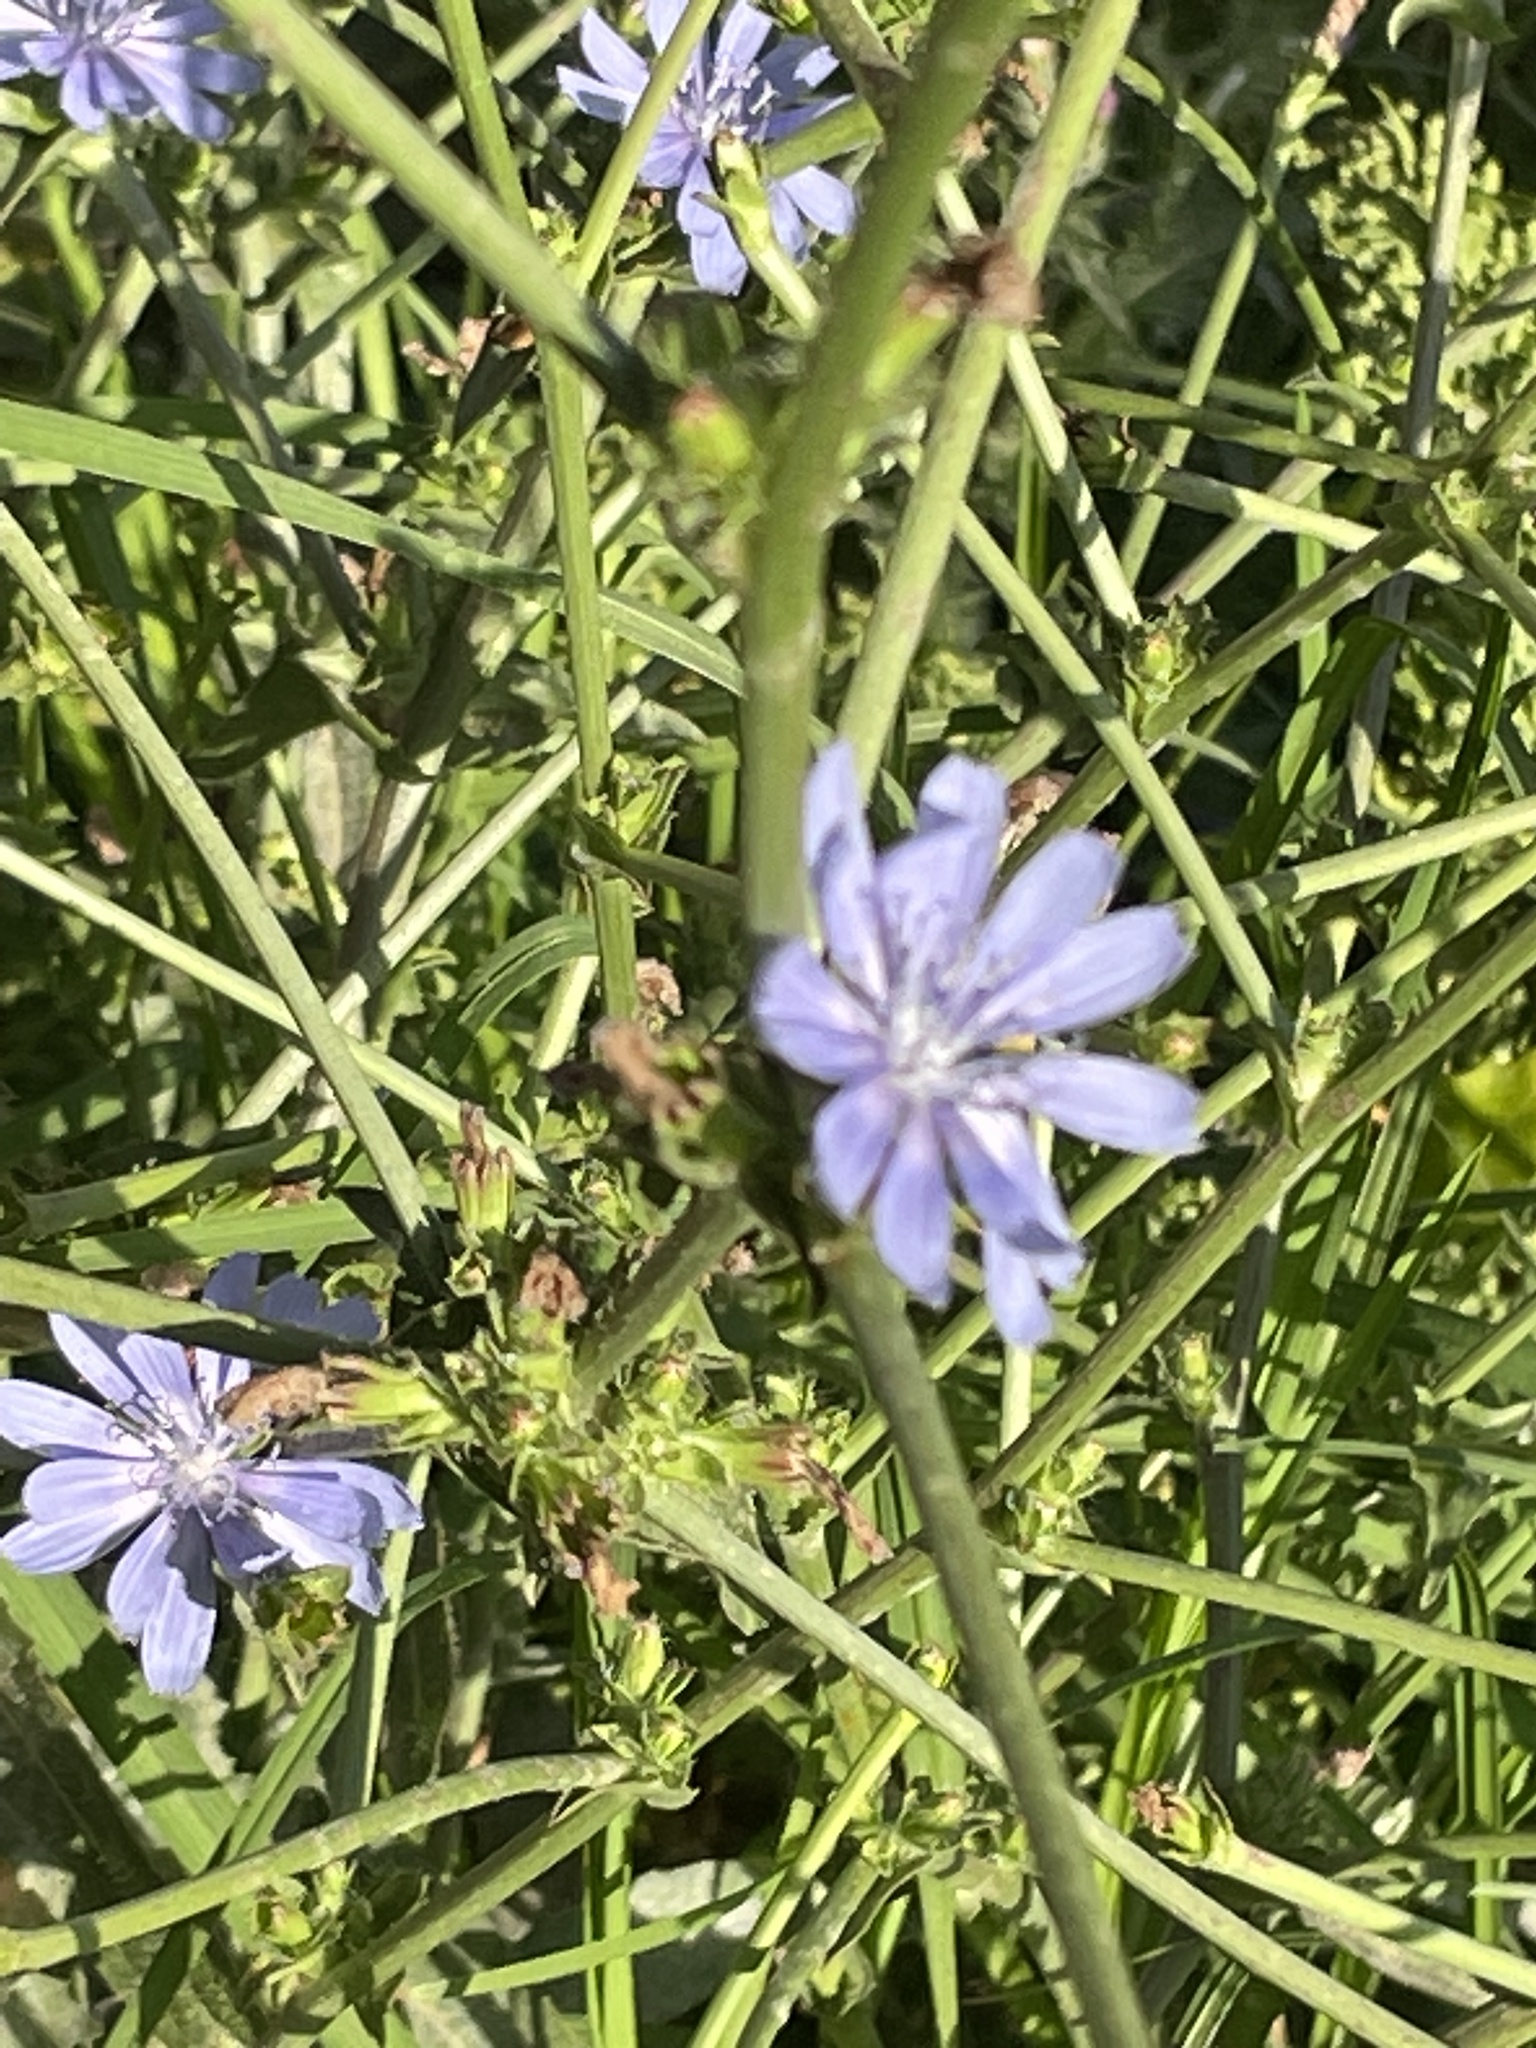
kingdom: Plantae
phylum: Tracheophyta
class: Magnoliopsida
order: Asterales
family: Asteraceae
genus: Cichorium
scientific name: Cichorium intybus
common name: Chicory
